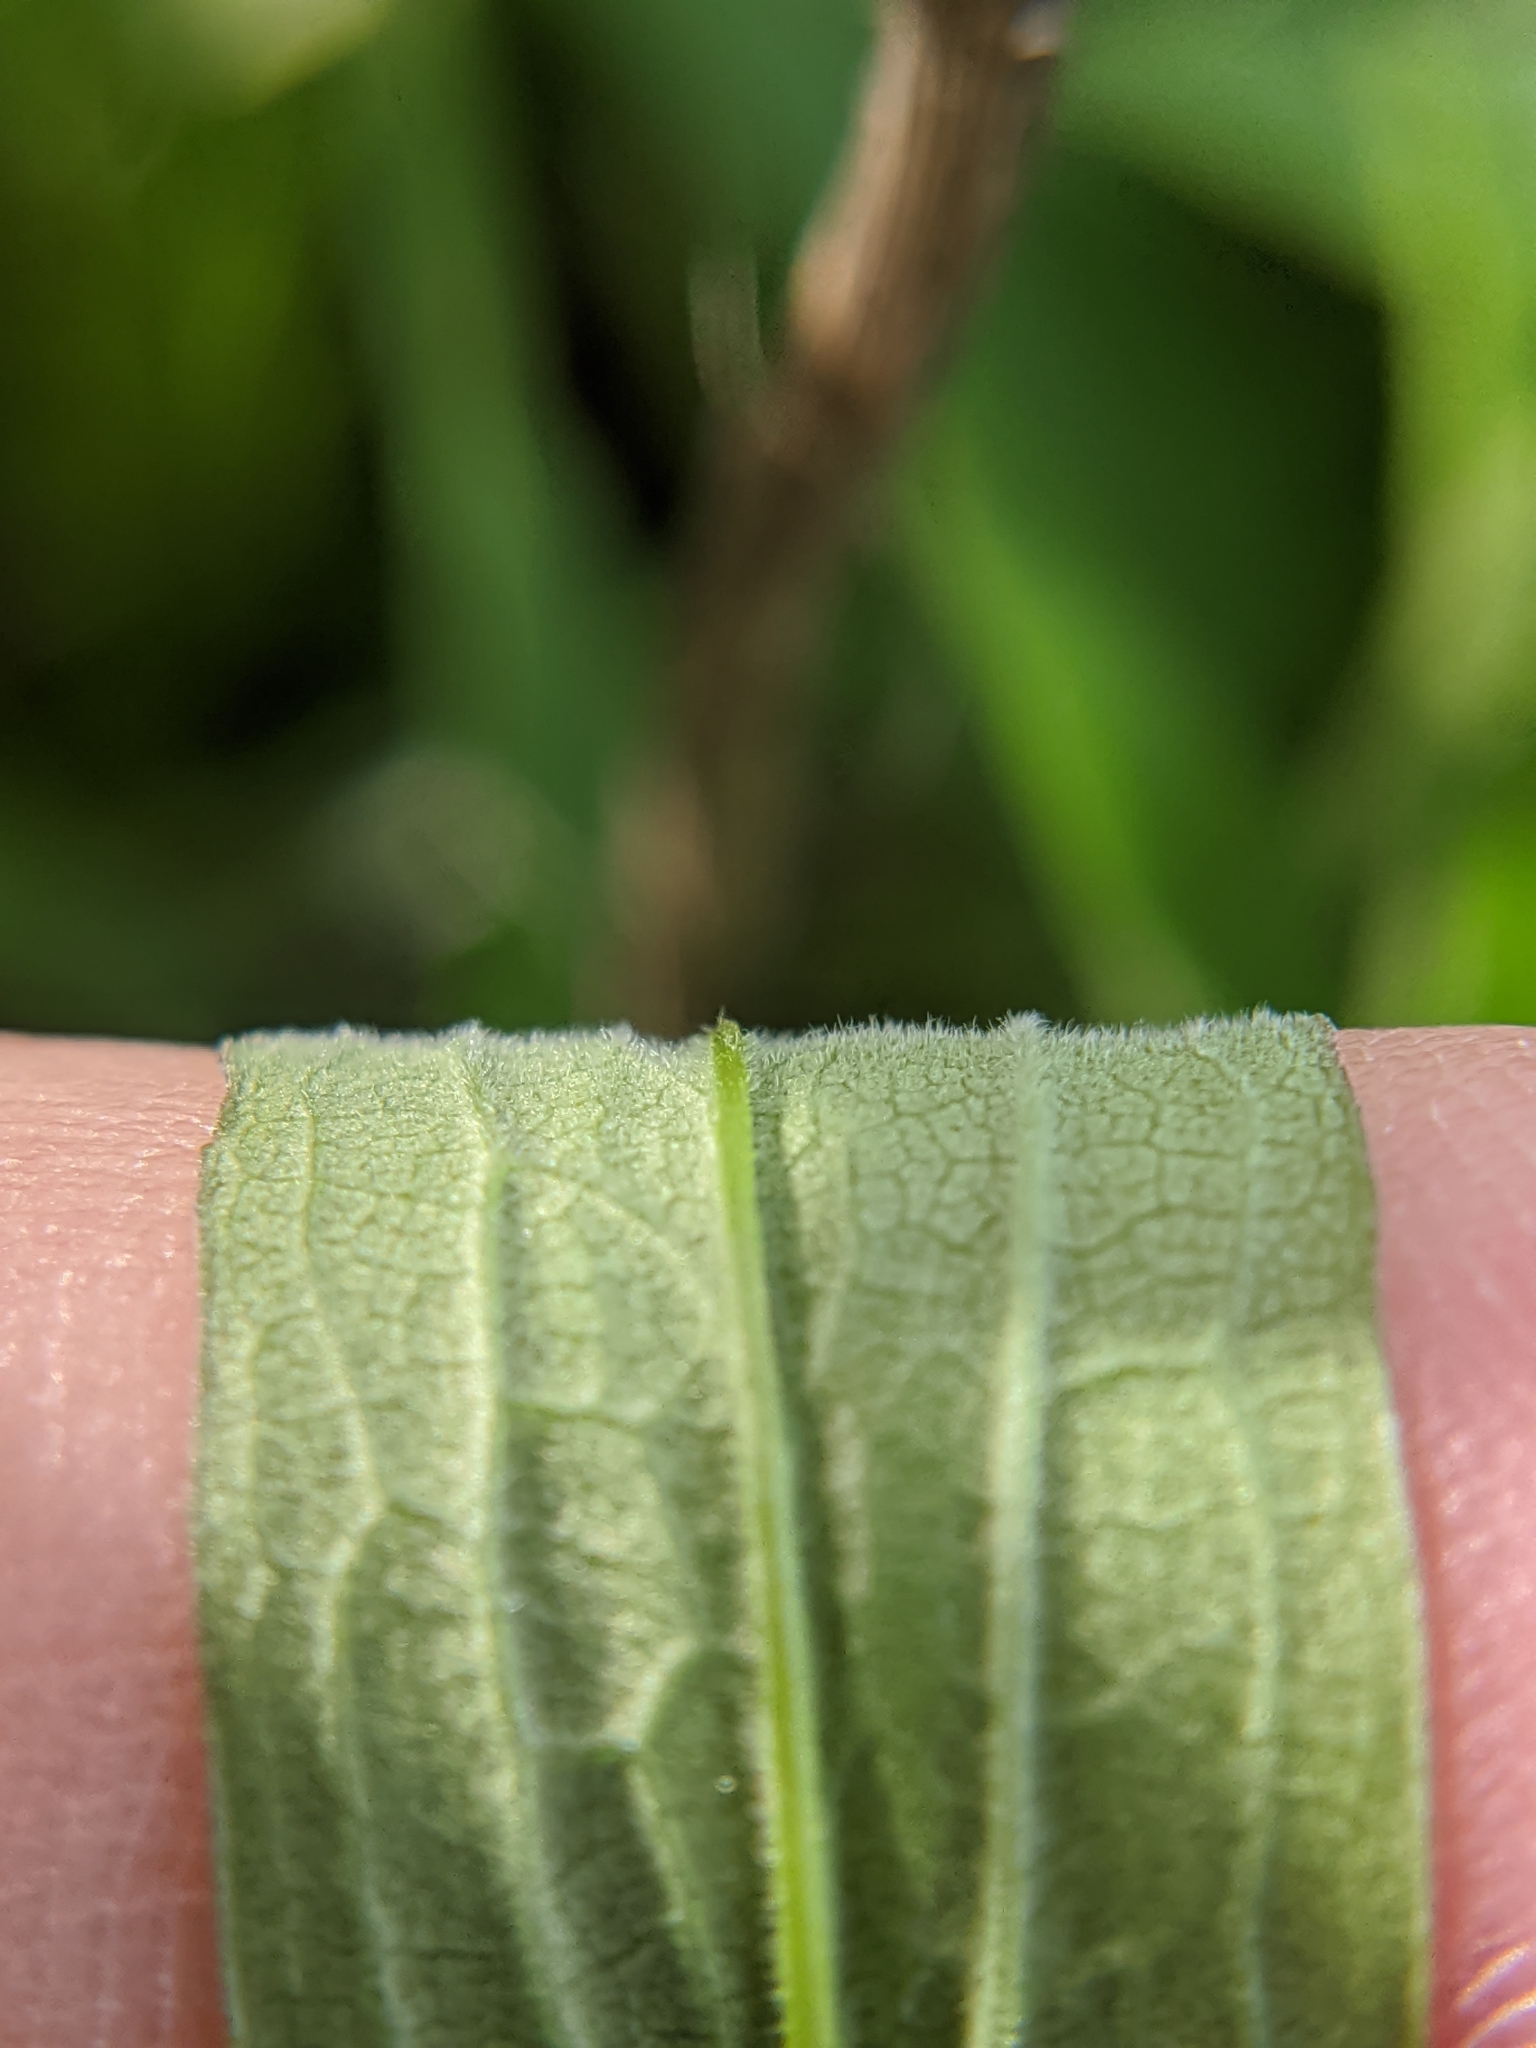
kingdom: Plantae
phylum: Tracheophyta
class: Magnoliopsida
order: Asterales
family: Asteraceae
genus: Solidago
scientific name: Solidago altissima
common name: Late goldenrod
